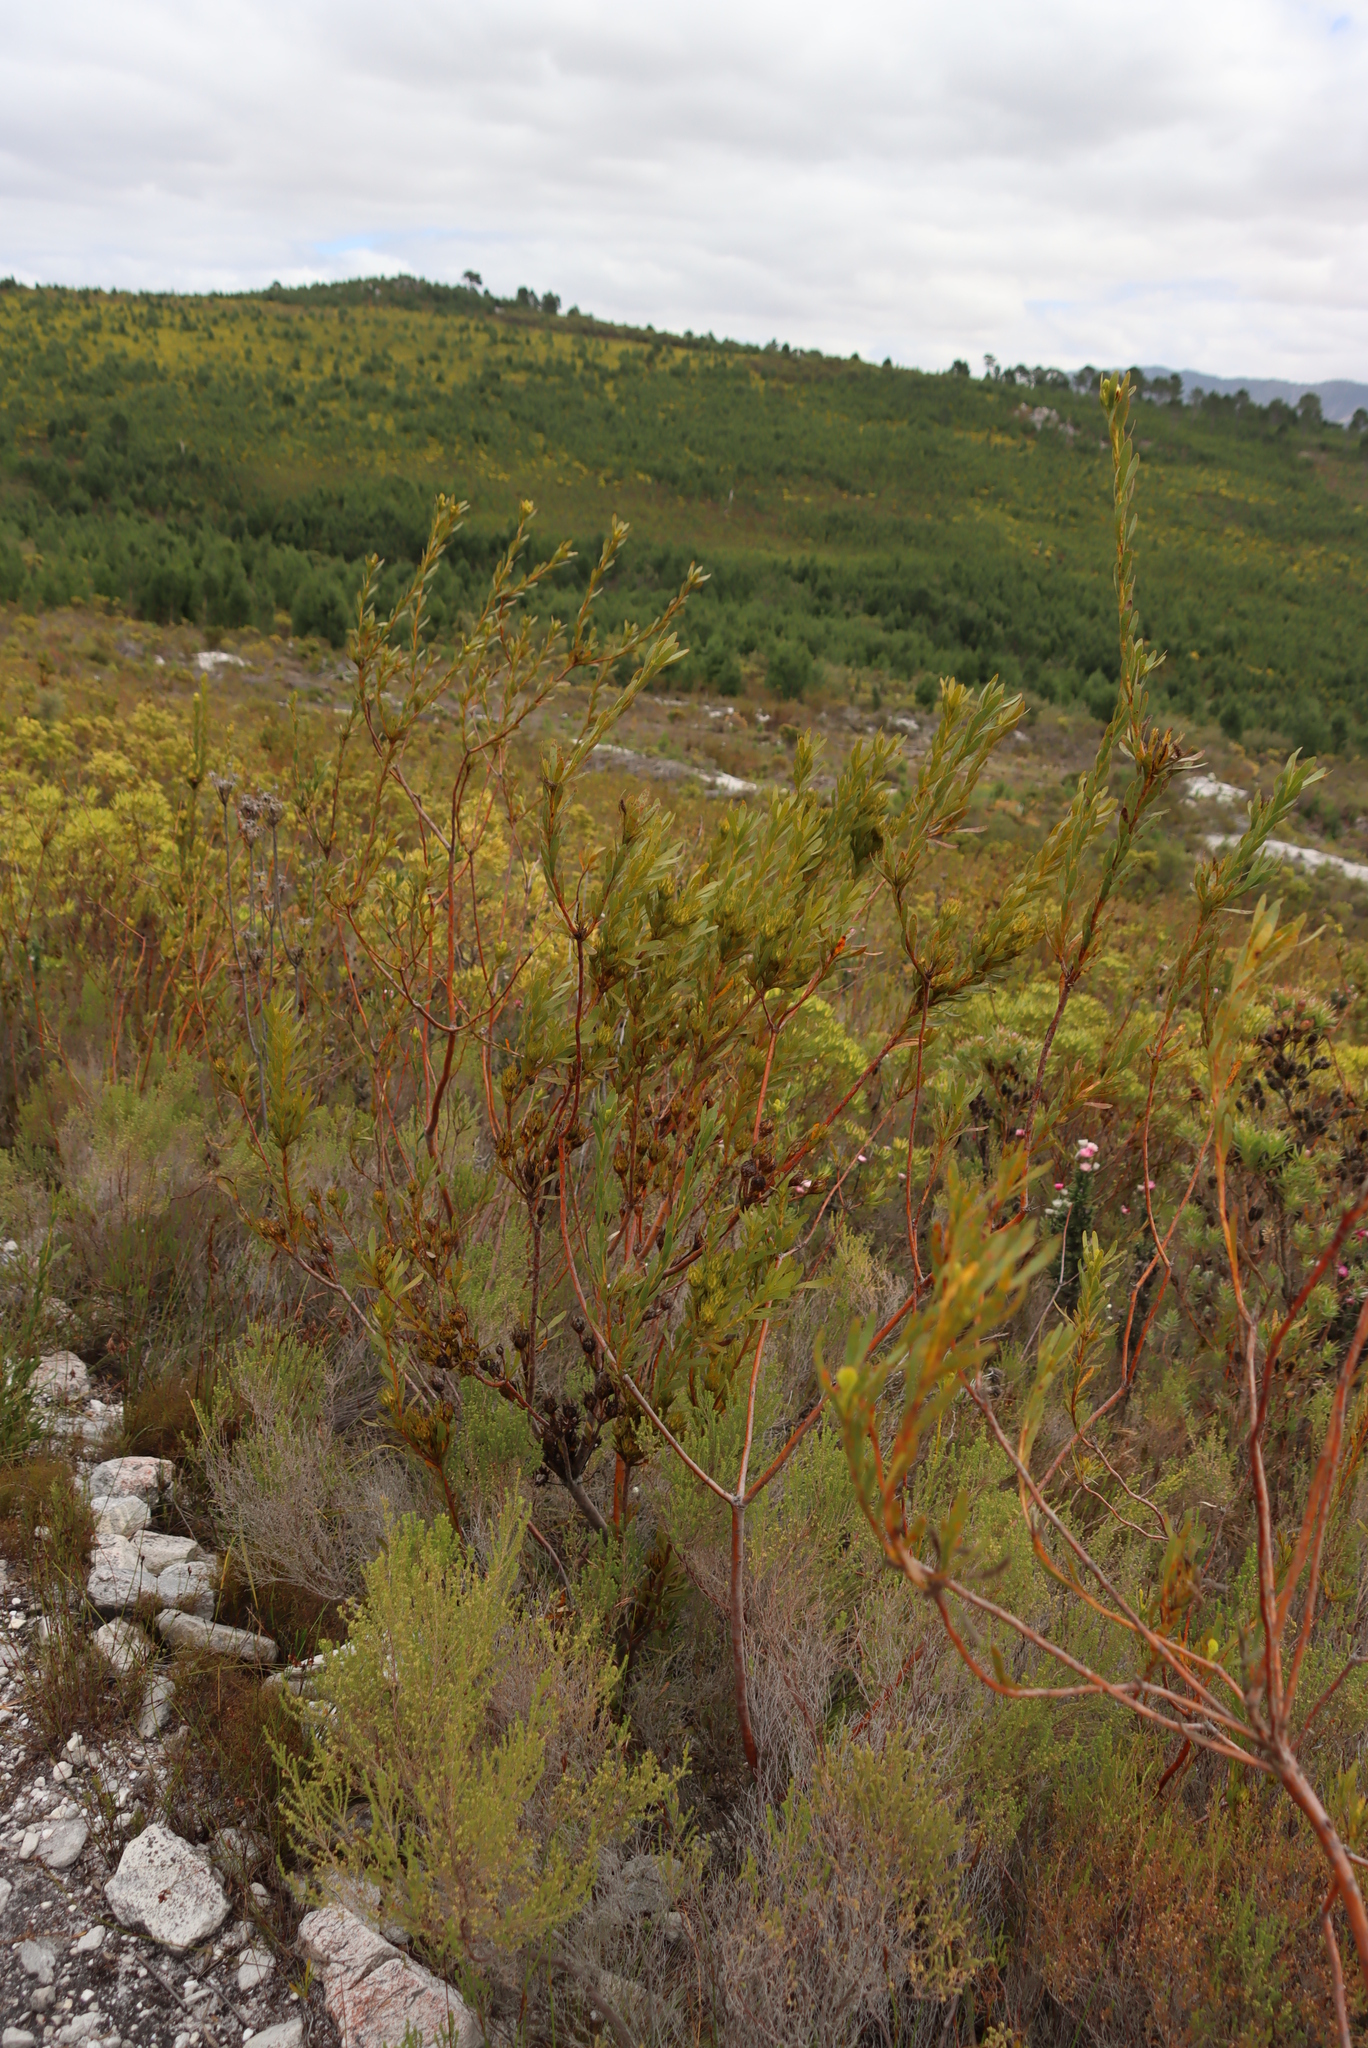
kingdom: Plantae
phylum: Tracheophyta
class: Magnoliopsida
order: Proteales
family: Proteaceae
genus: Aulax
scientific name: Aulax umbellata
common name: Broad-leaf featherbush
